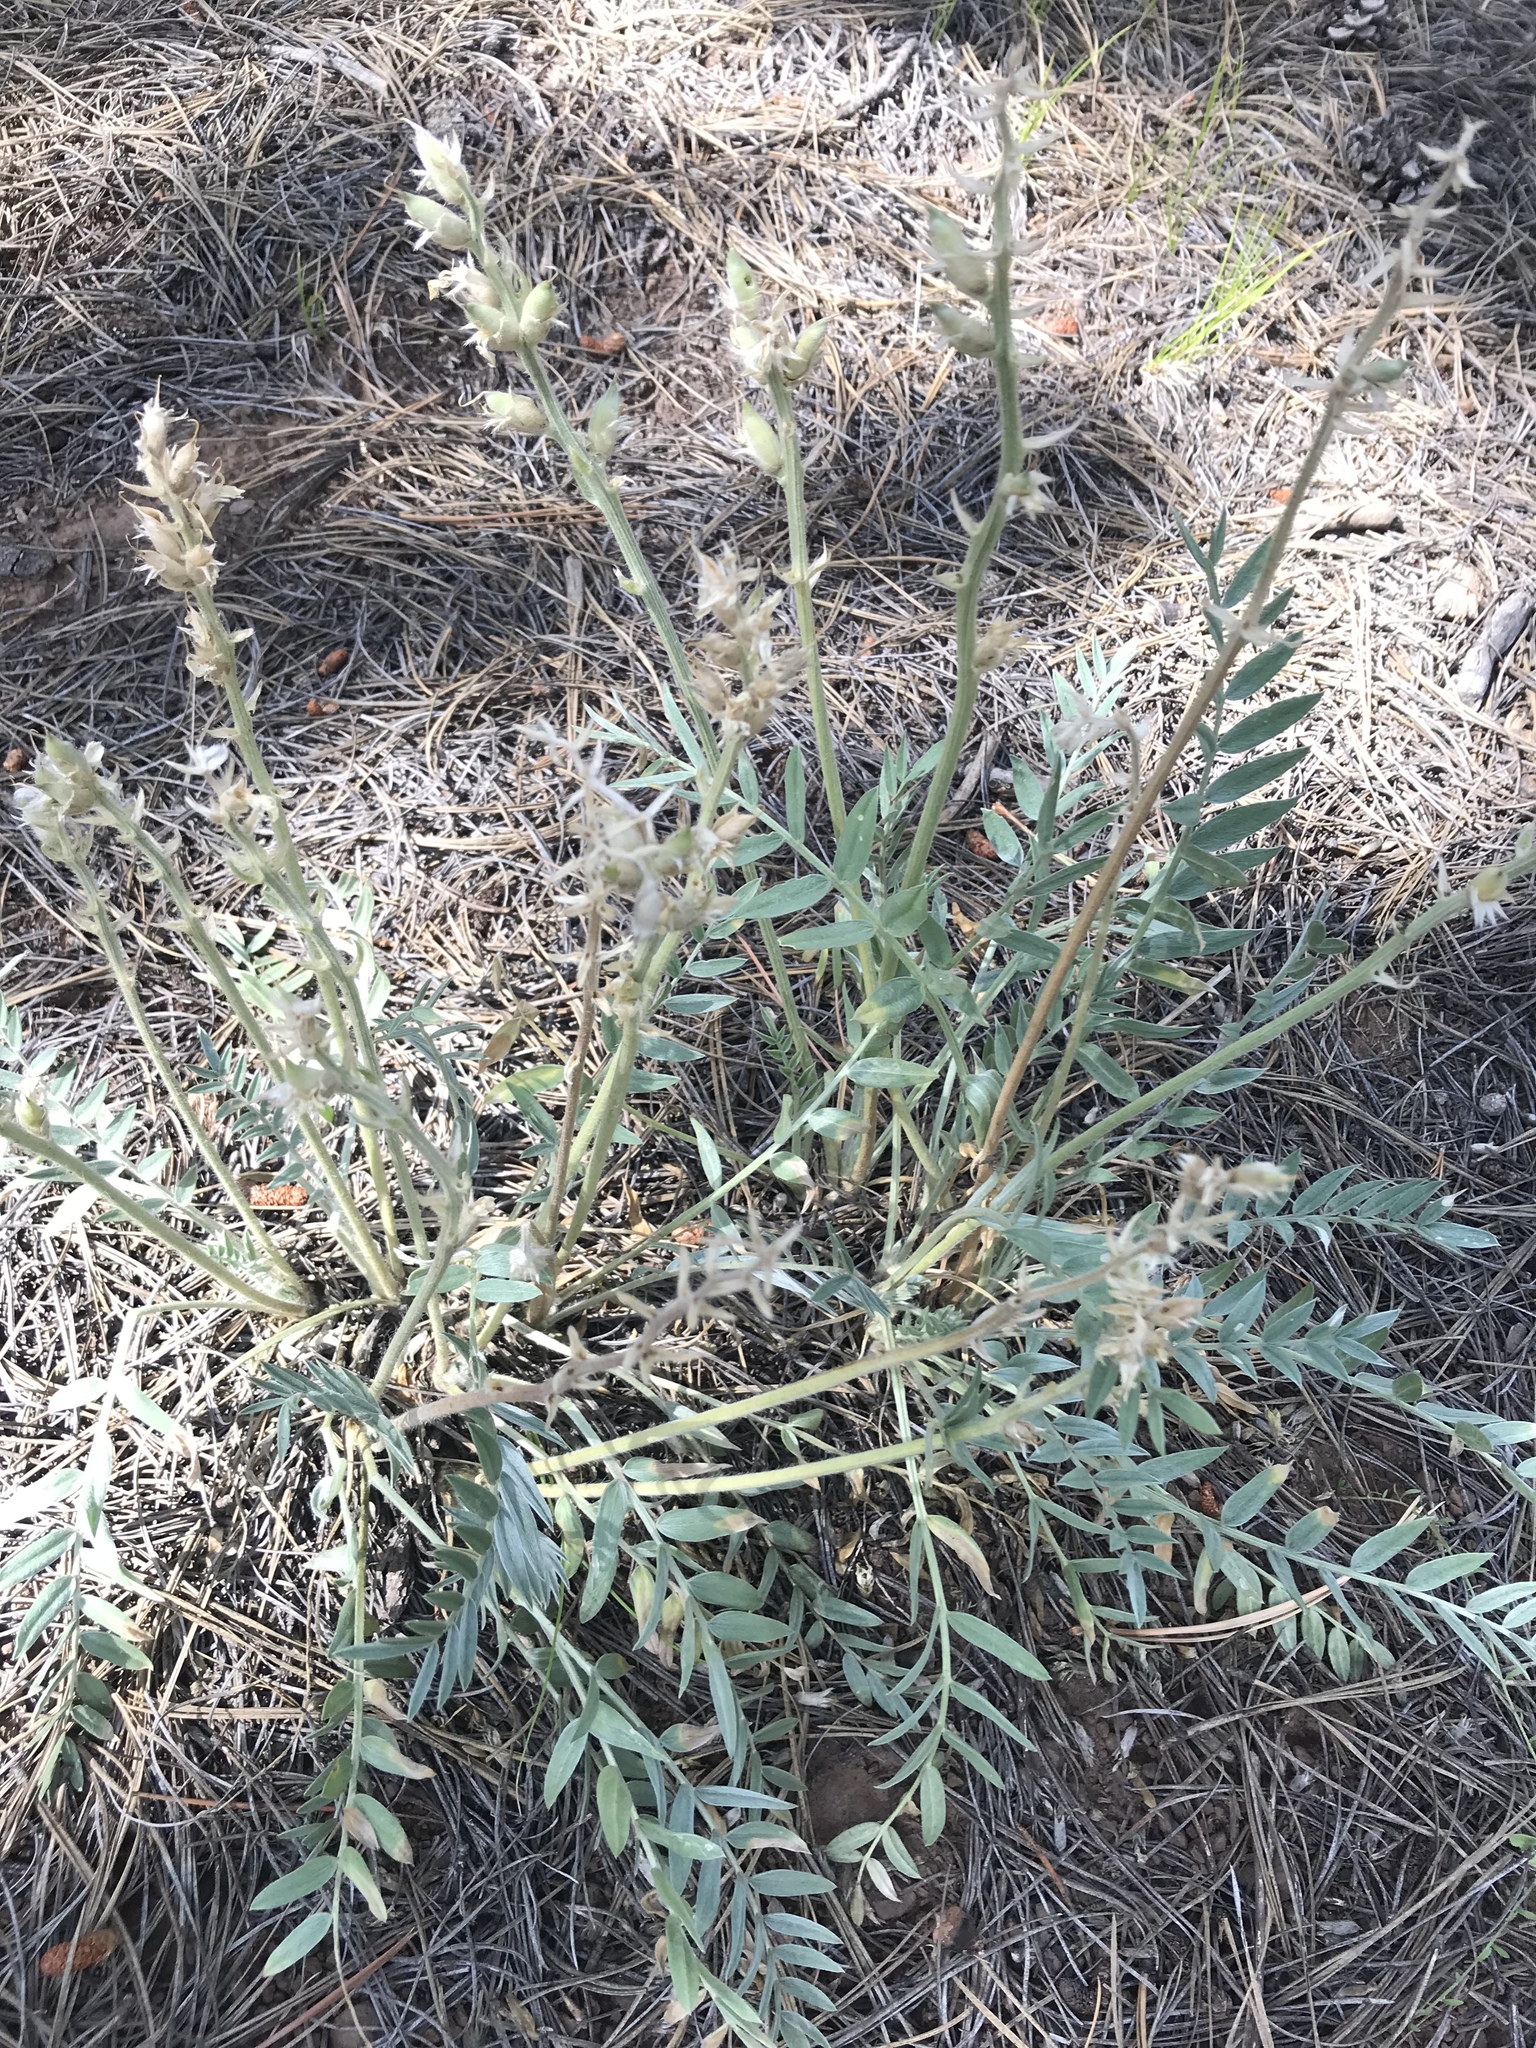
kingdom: Plantae
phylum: Tracheophyta
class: Magnoliopsida
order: Fabales
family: Fabaceae
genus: Oxytropis
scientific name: Oxytropis lambertii
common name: Purple locoweed
